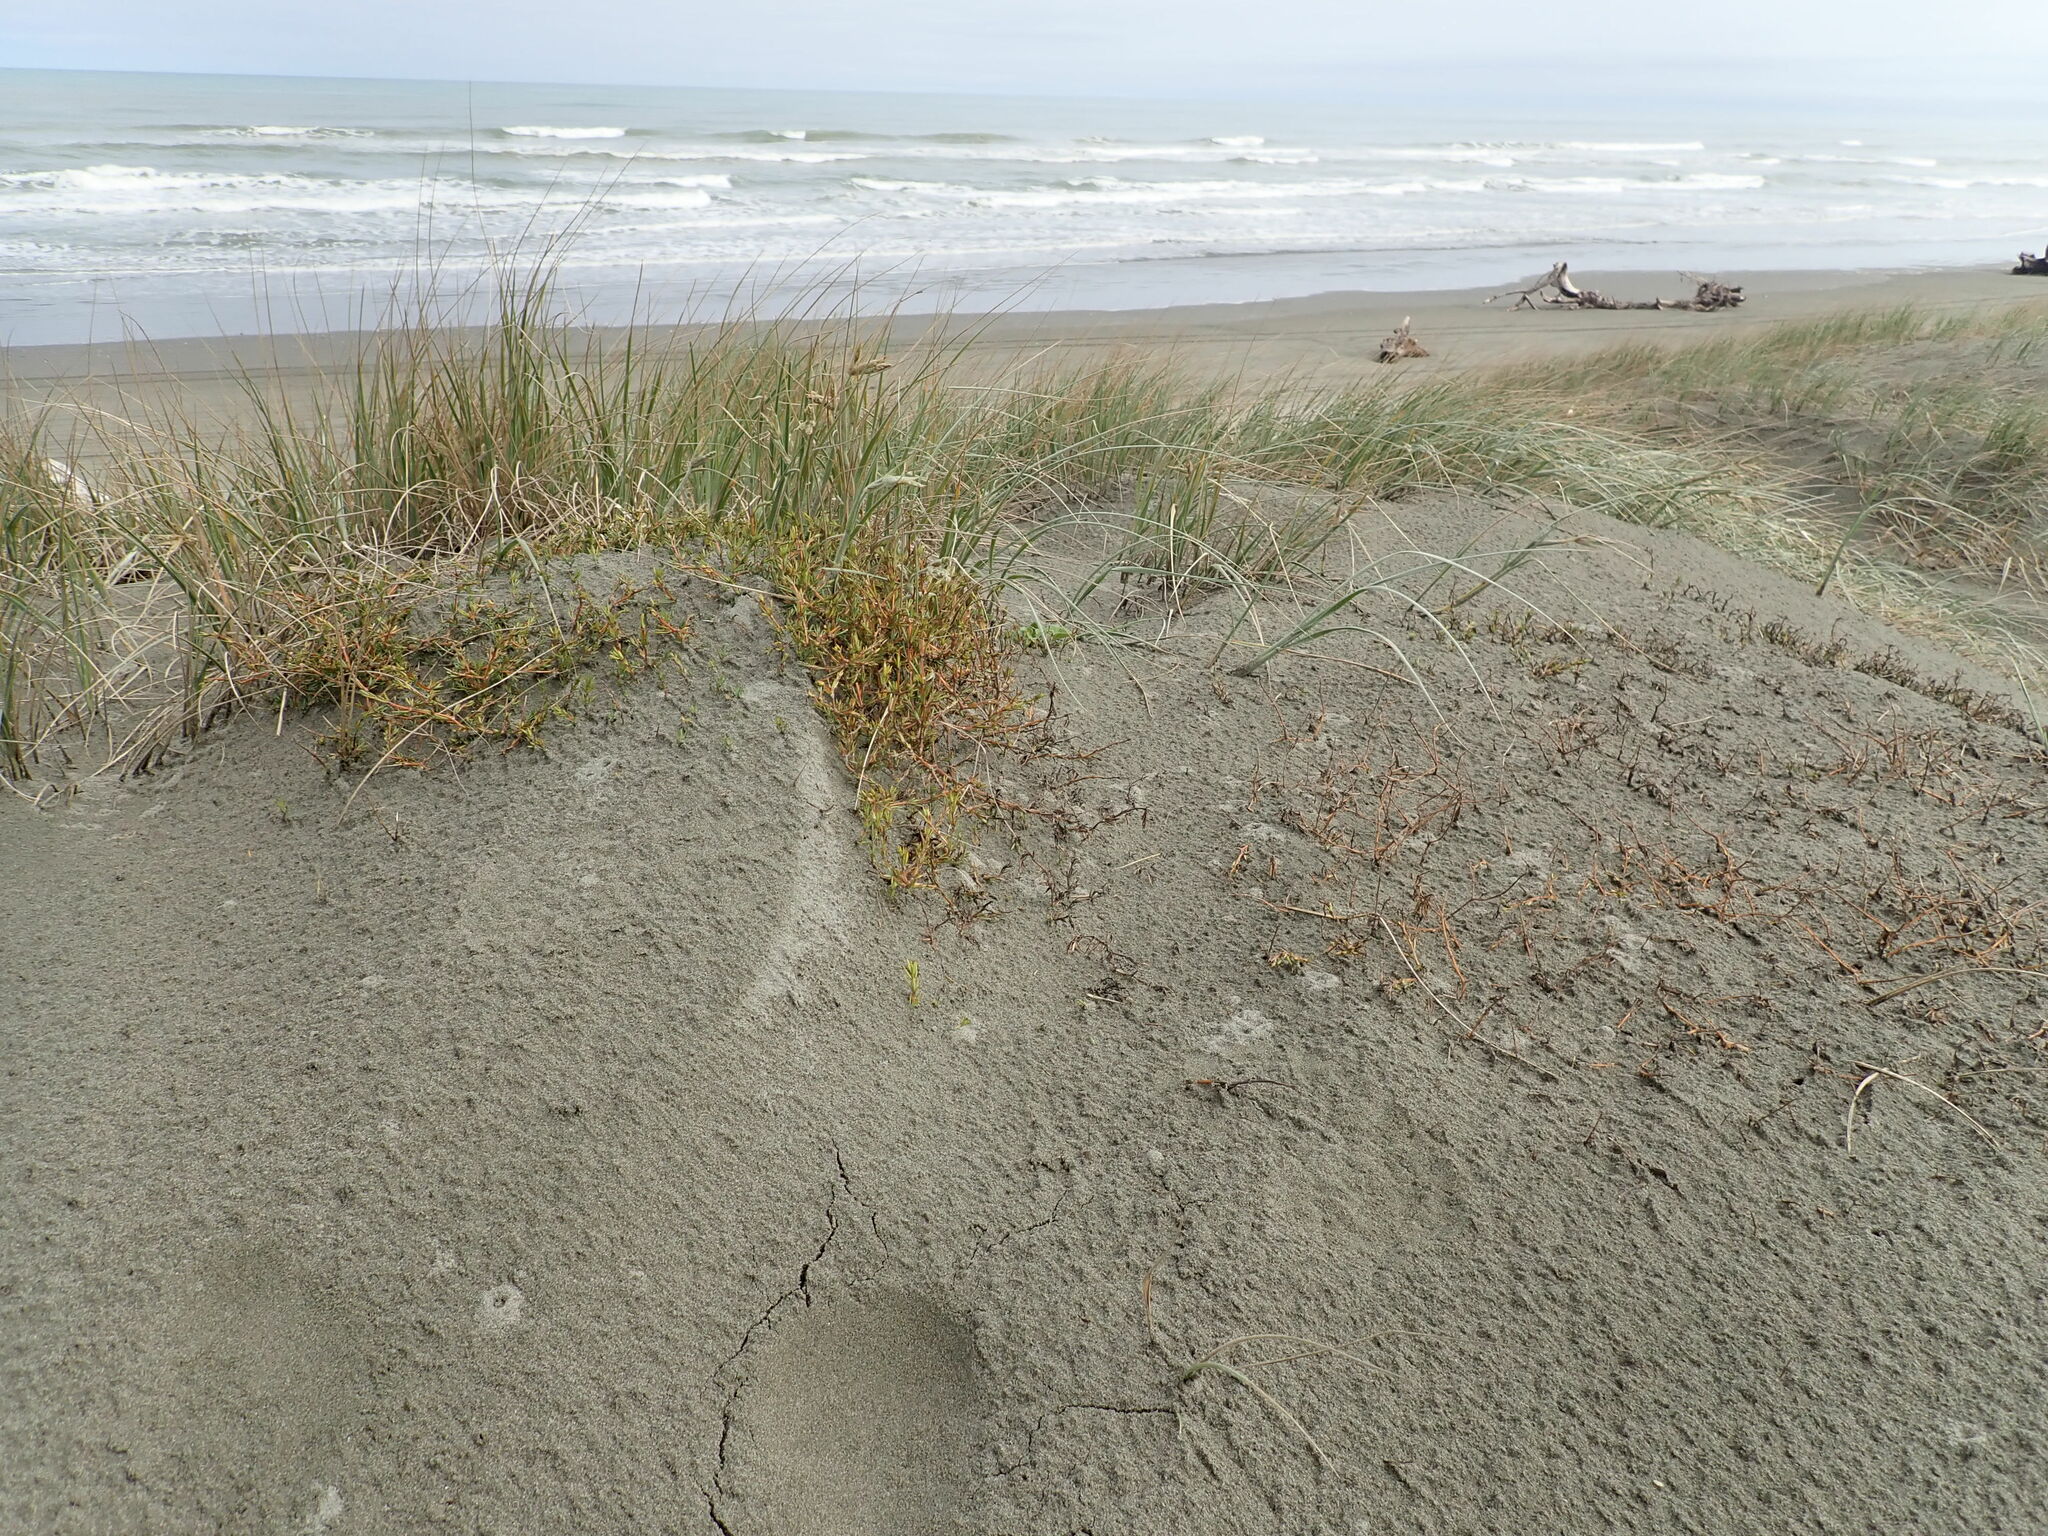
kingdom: Plantae
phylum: Tracheophyta
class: Magnoliopsida
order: Gentianales
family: Rubiaceae
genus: Coprosma
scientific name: Coprosma acerosa
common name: Sand coprosma
